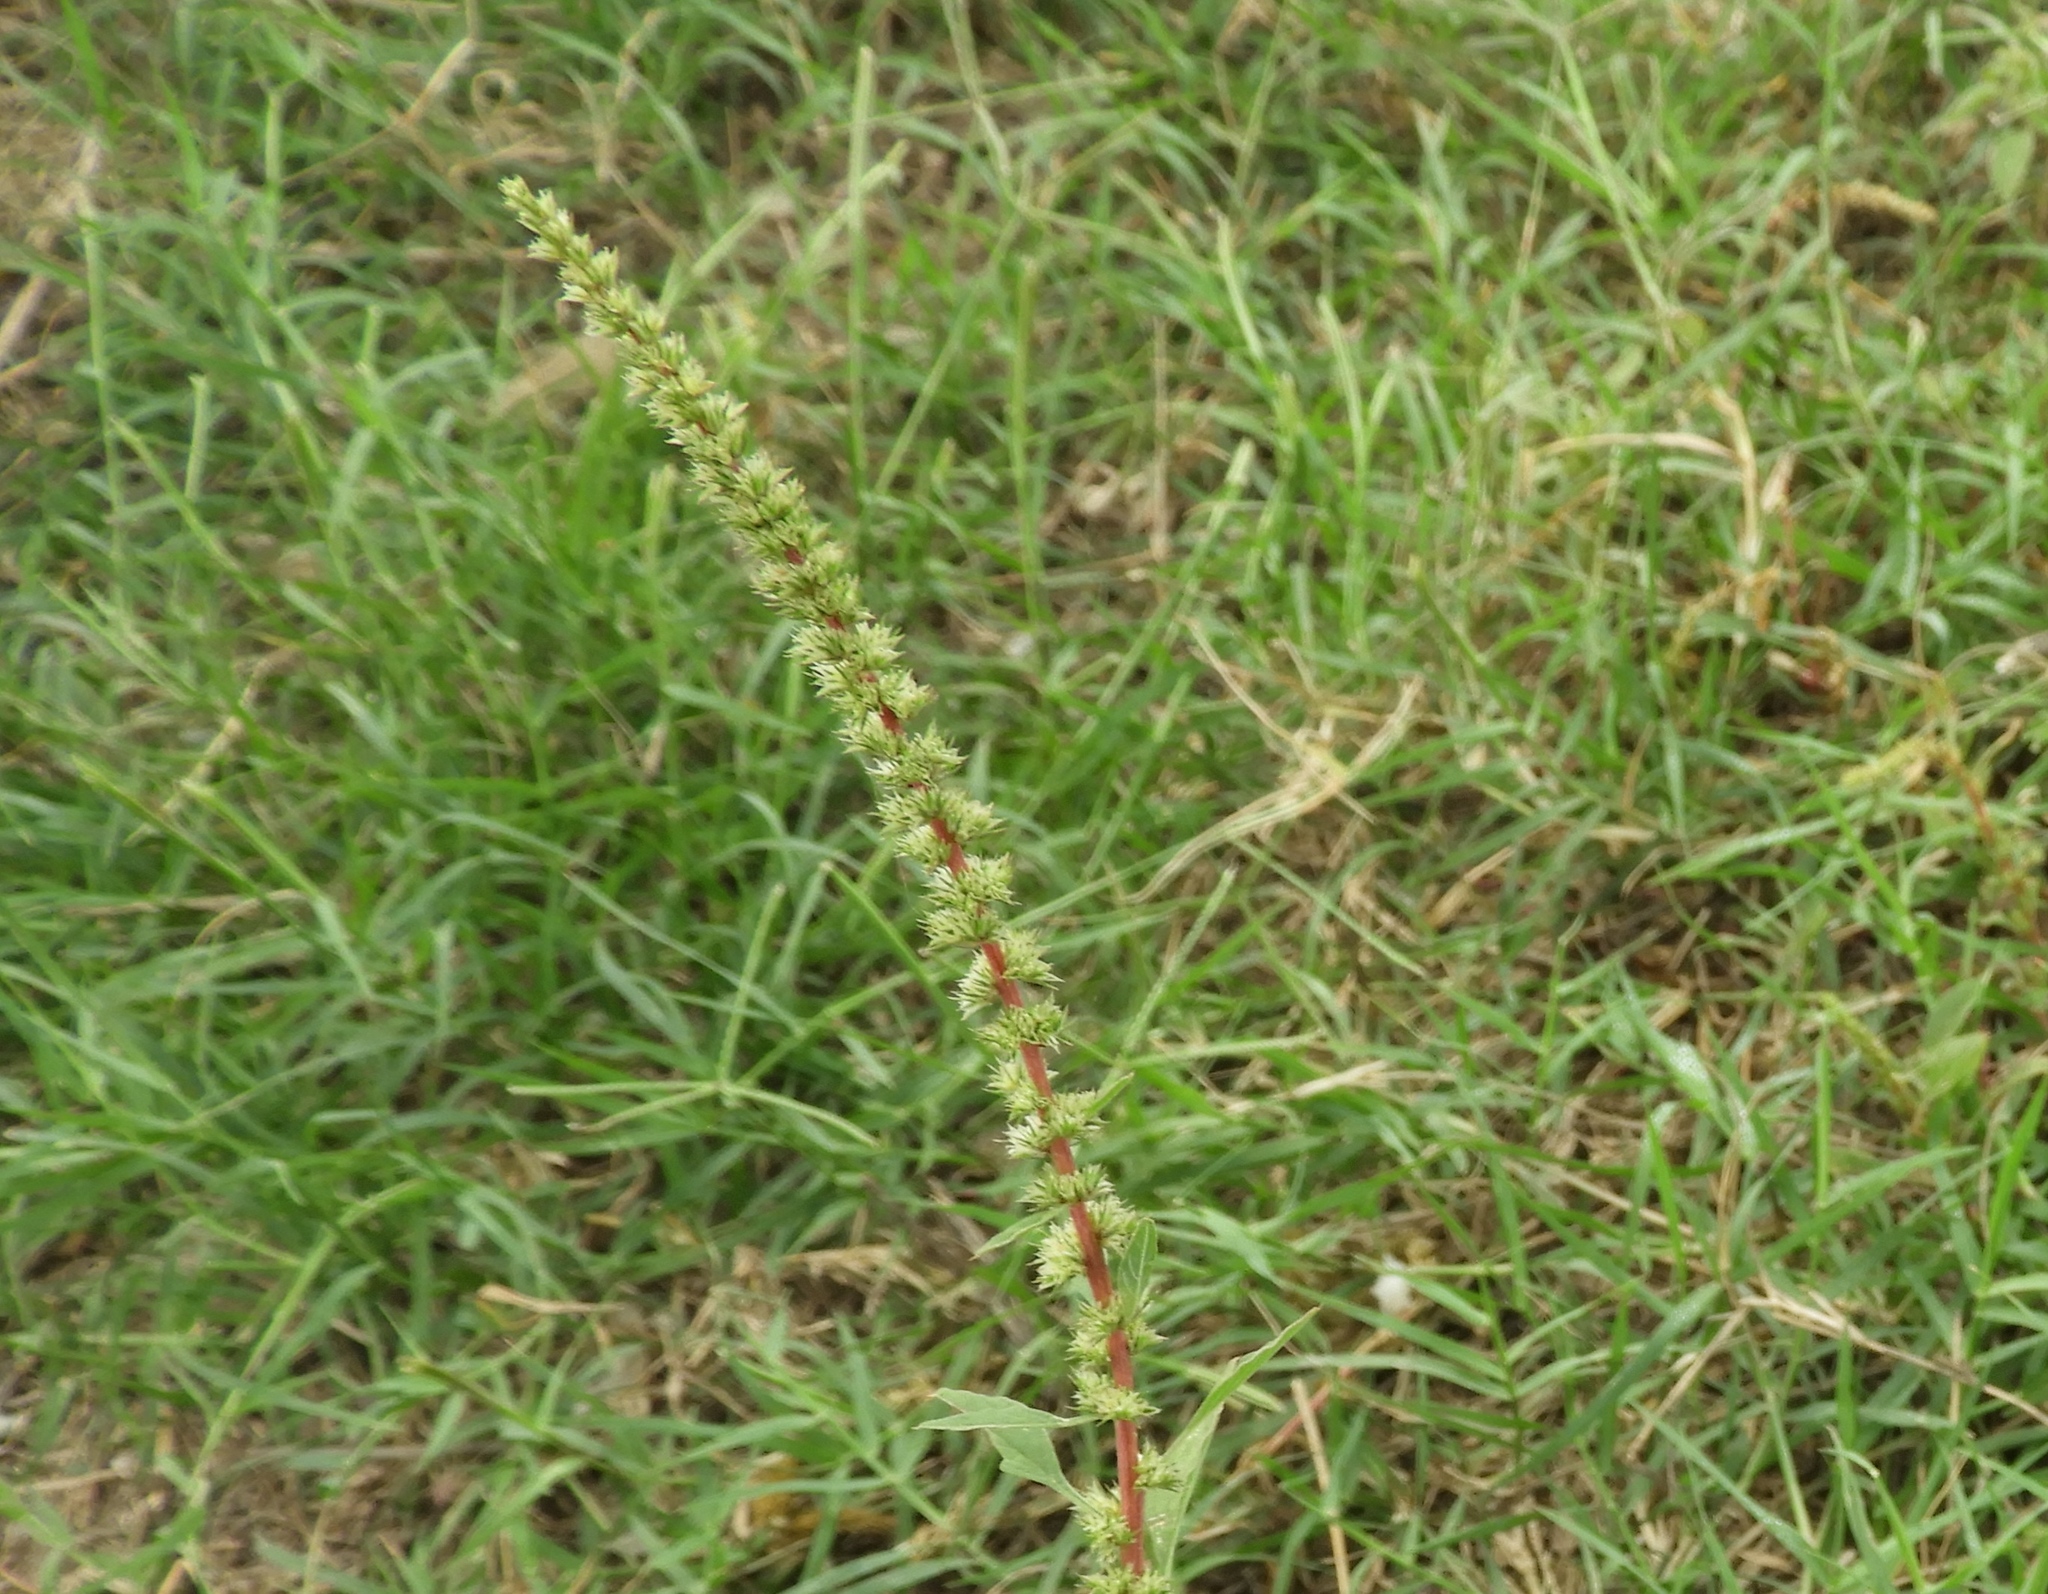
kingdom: Plantae
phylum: Tracheophyta
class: Magnoliopsida
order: Caryophyllales
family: Amaranthaceae
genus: Amaranthus
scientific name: Amaranthus
